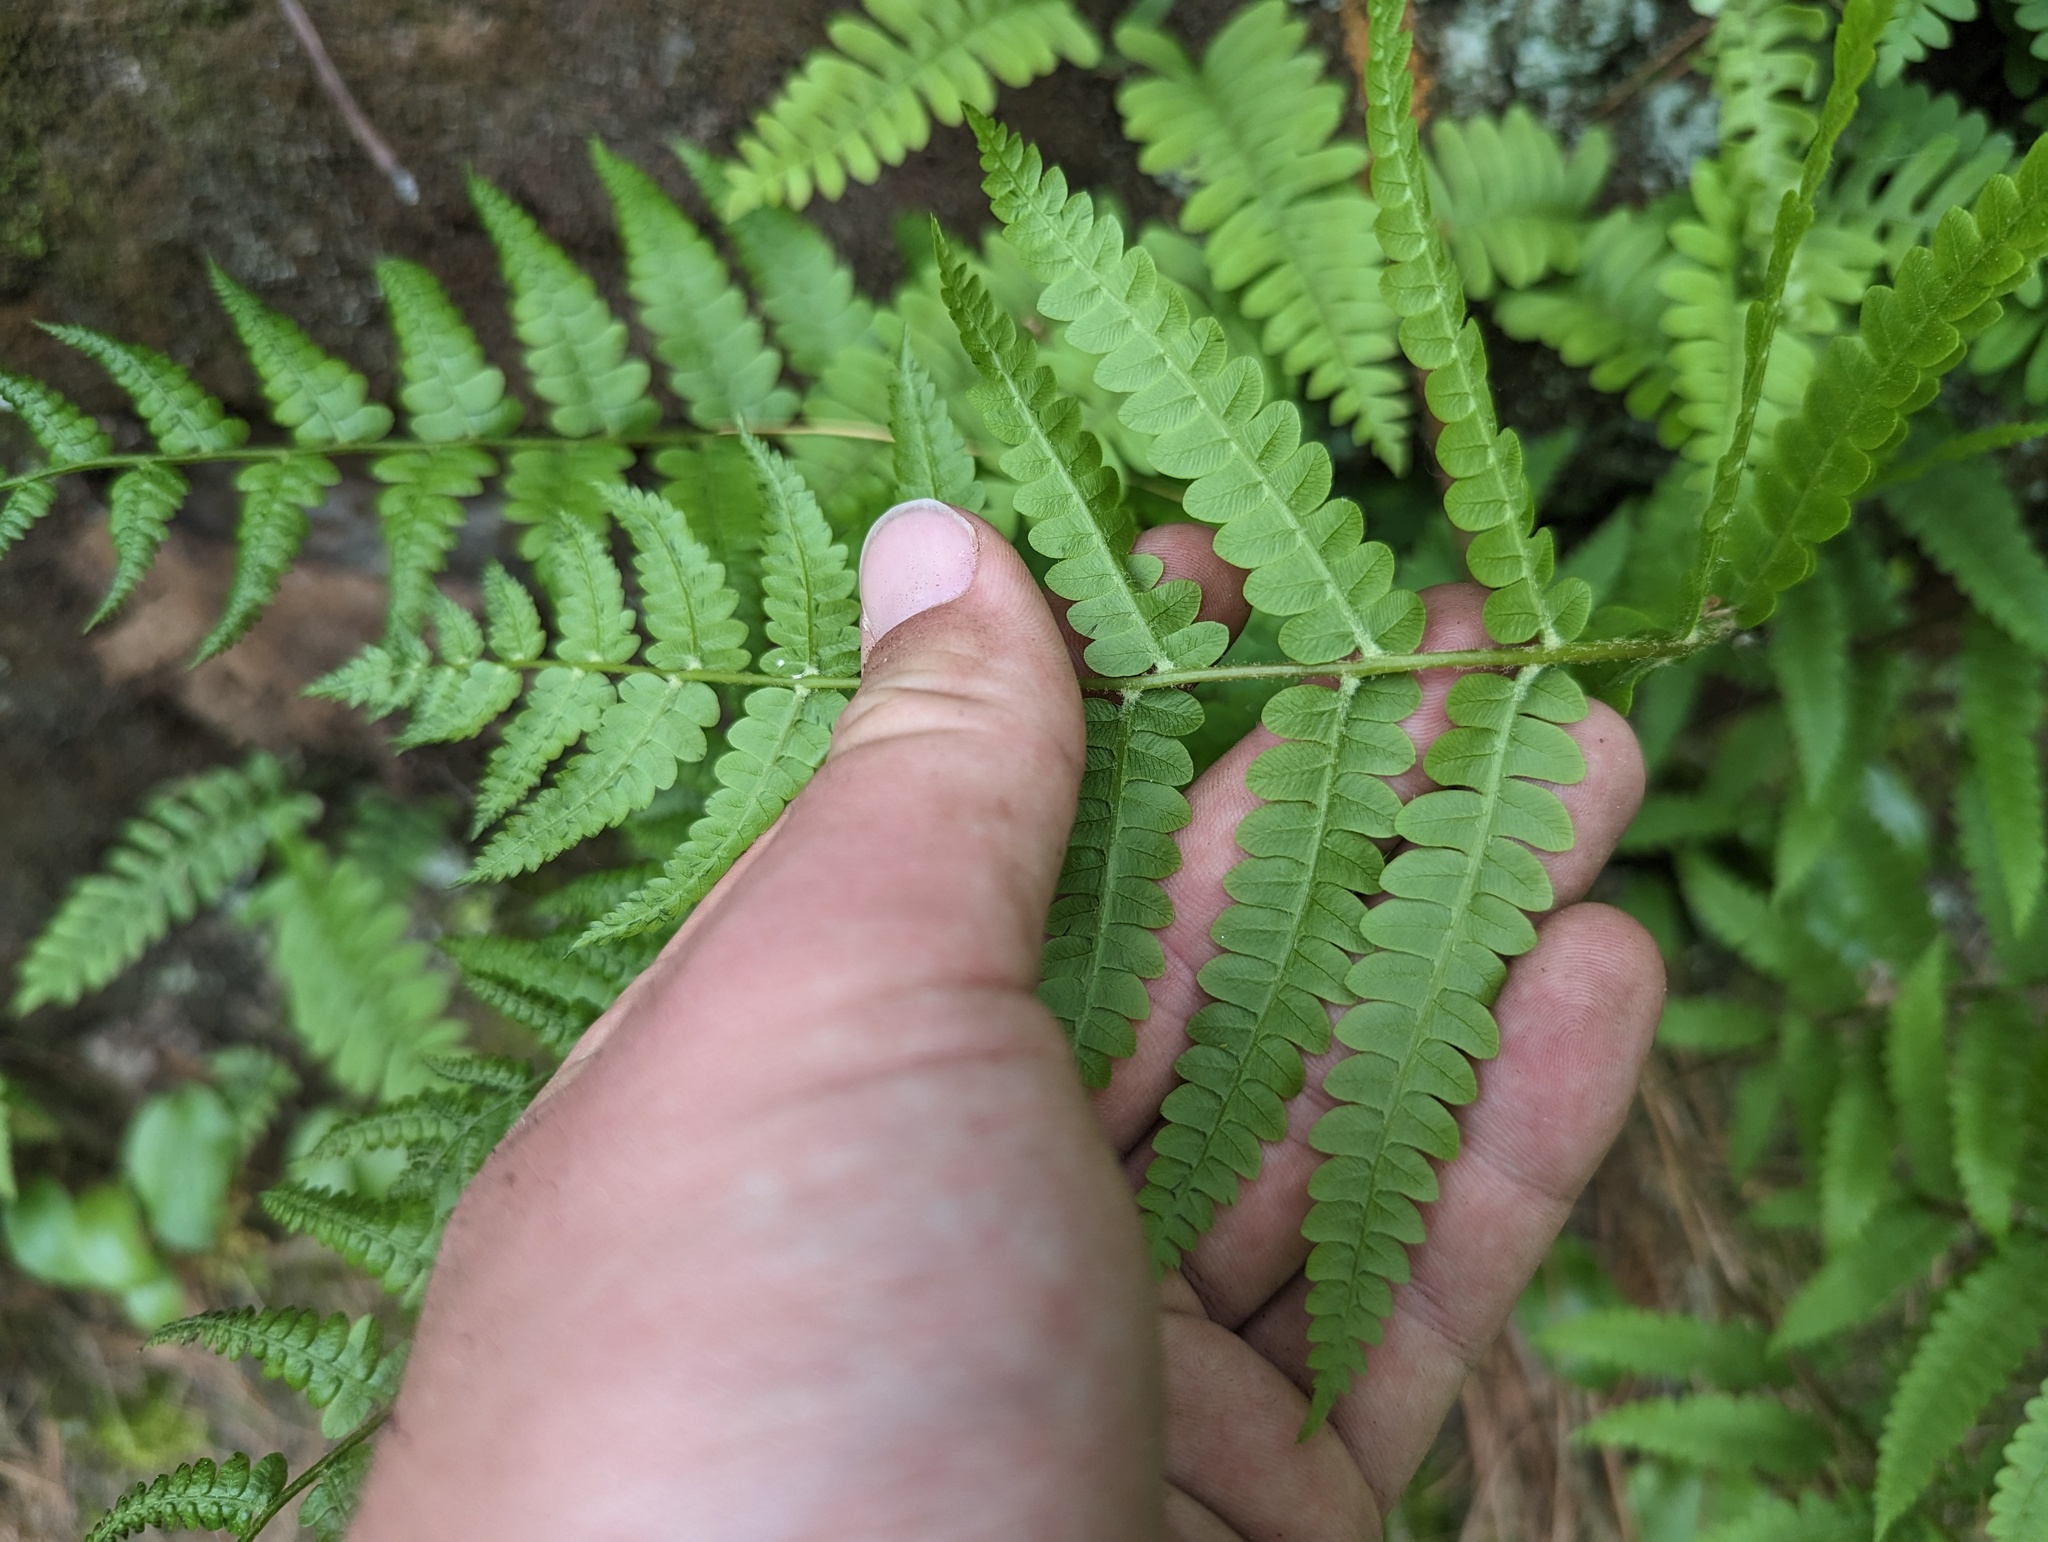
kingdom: Plantae
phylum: Tracheophyta
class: Polypodiopsida
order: Osmundales
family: Osmundaceae
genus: Osmundastrum
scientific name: Osmundastrum cinnamomeum
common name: Cinnamon fern
